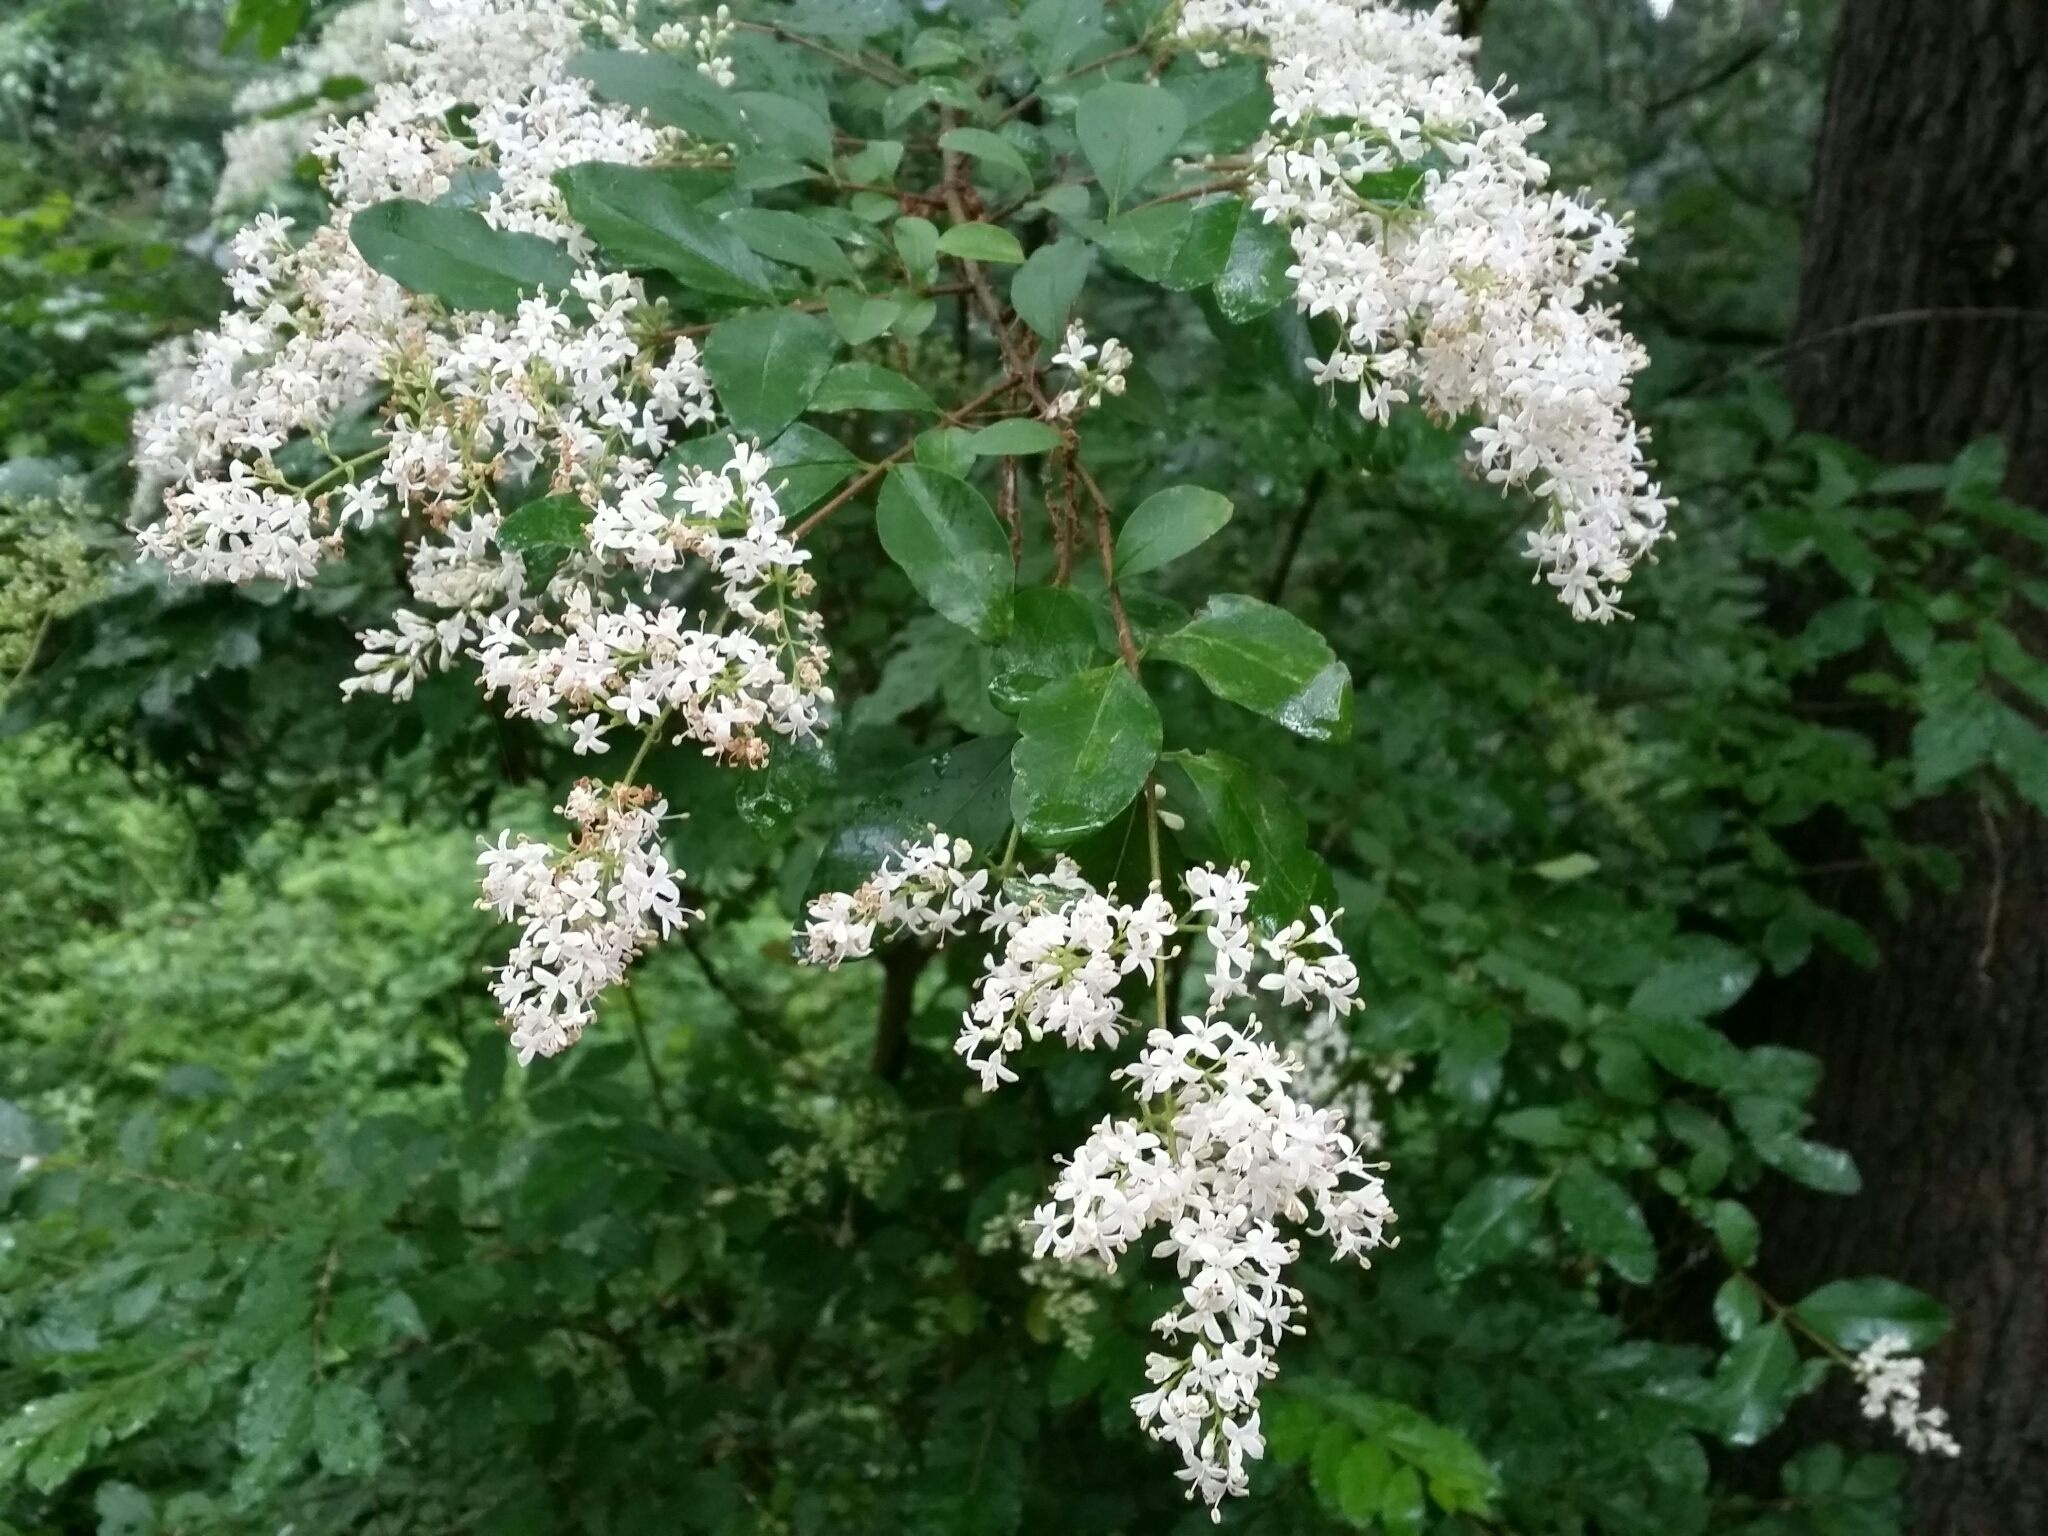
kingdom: Plantae
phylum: Tracheophyta
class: Magnoliopsida
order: Lamiales
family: Oleaceae
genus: Ligustrum
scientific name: Ligustrum vulgare
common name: Wild privet
